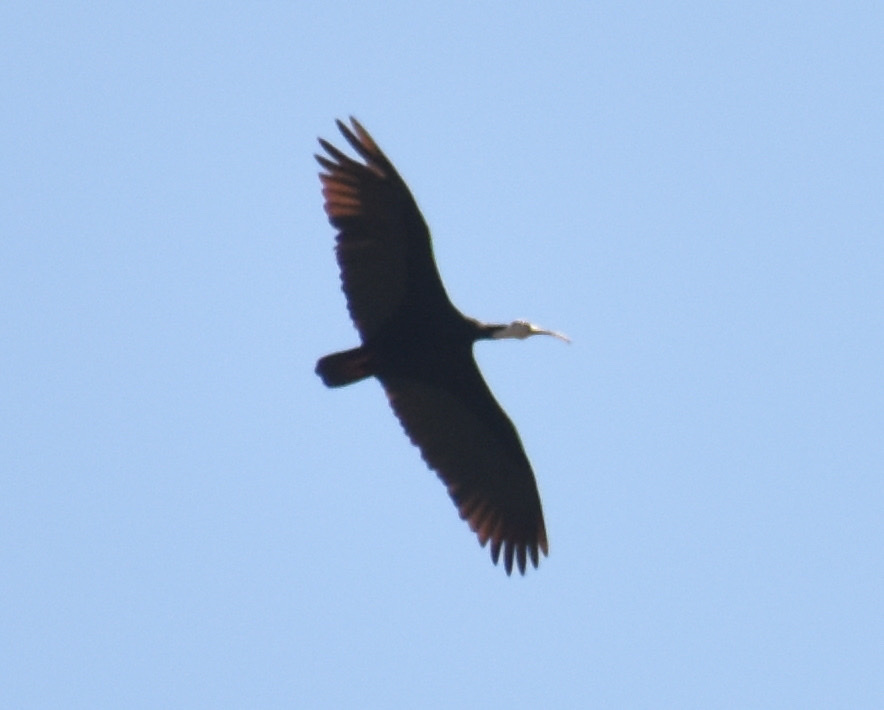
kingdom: Animalia
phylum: Chordata
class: Aves
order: Pelecaniformes
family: Threskiornithidae
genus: Geronticus
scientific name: Geronticus calvus
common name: Southern bald ibis
